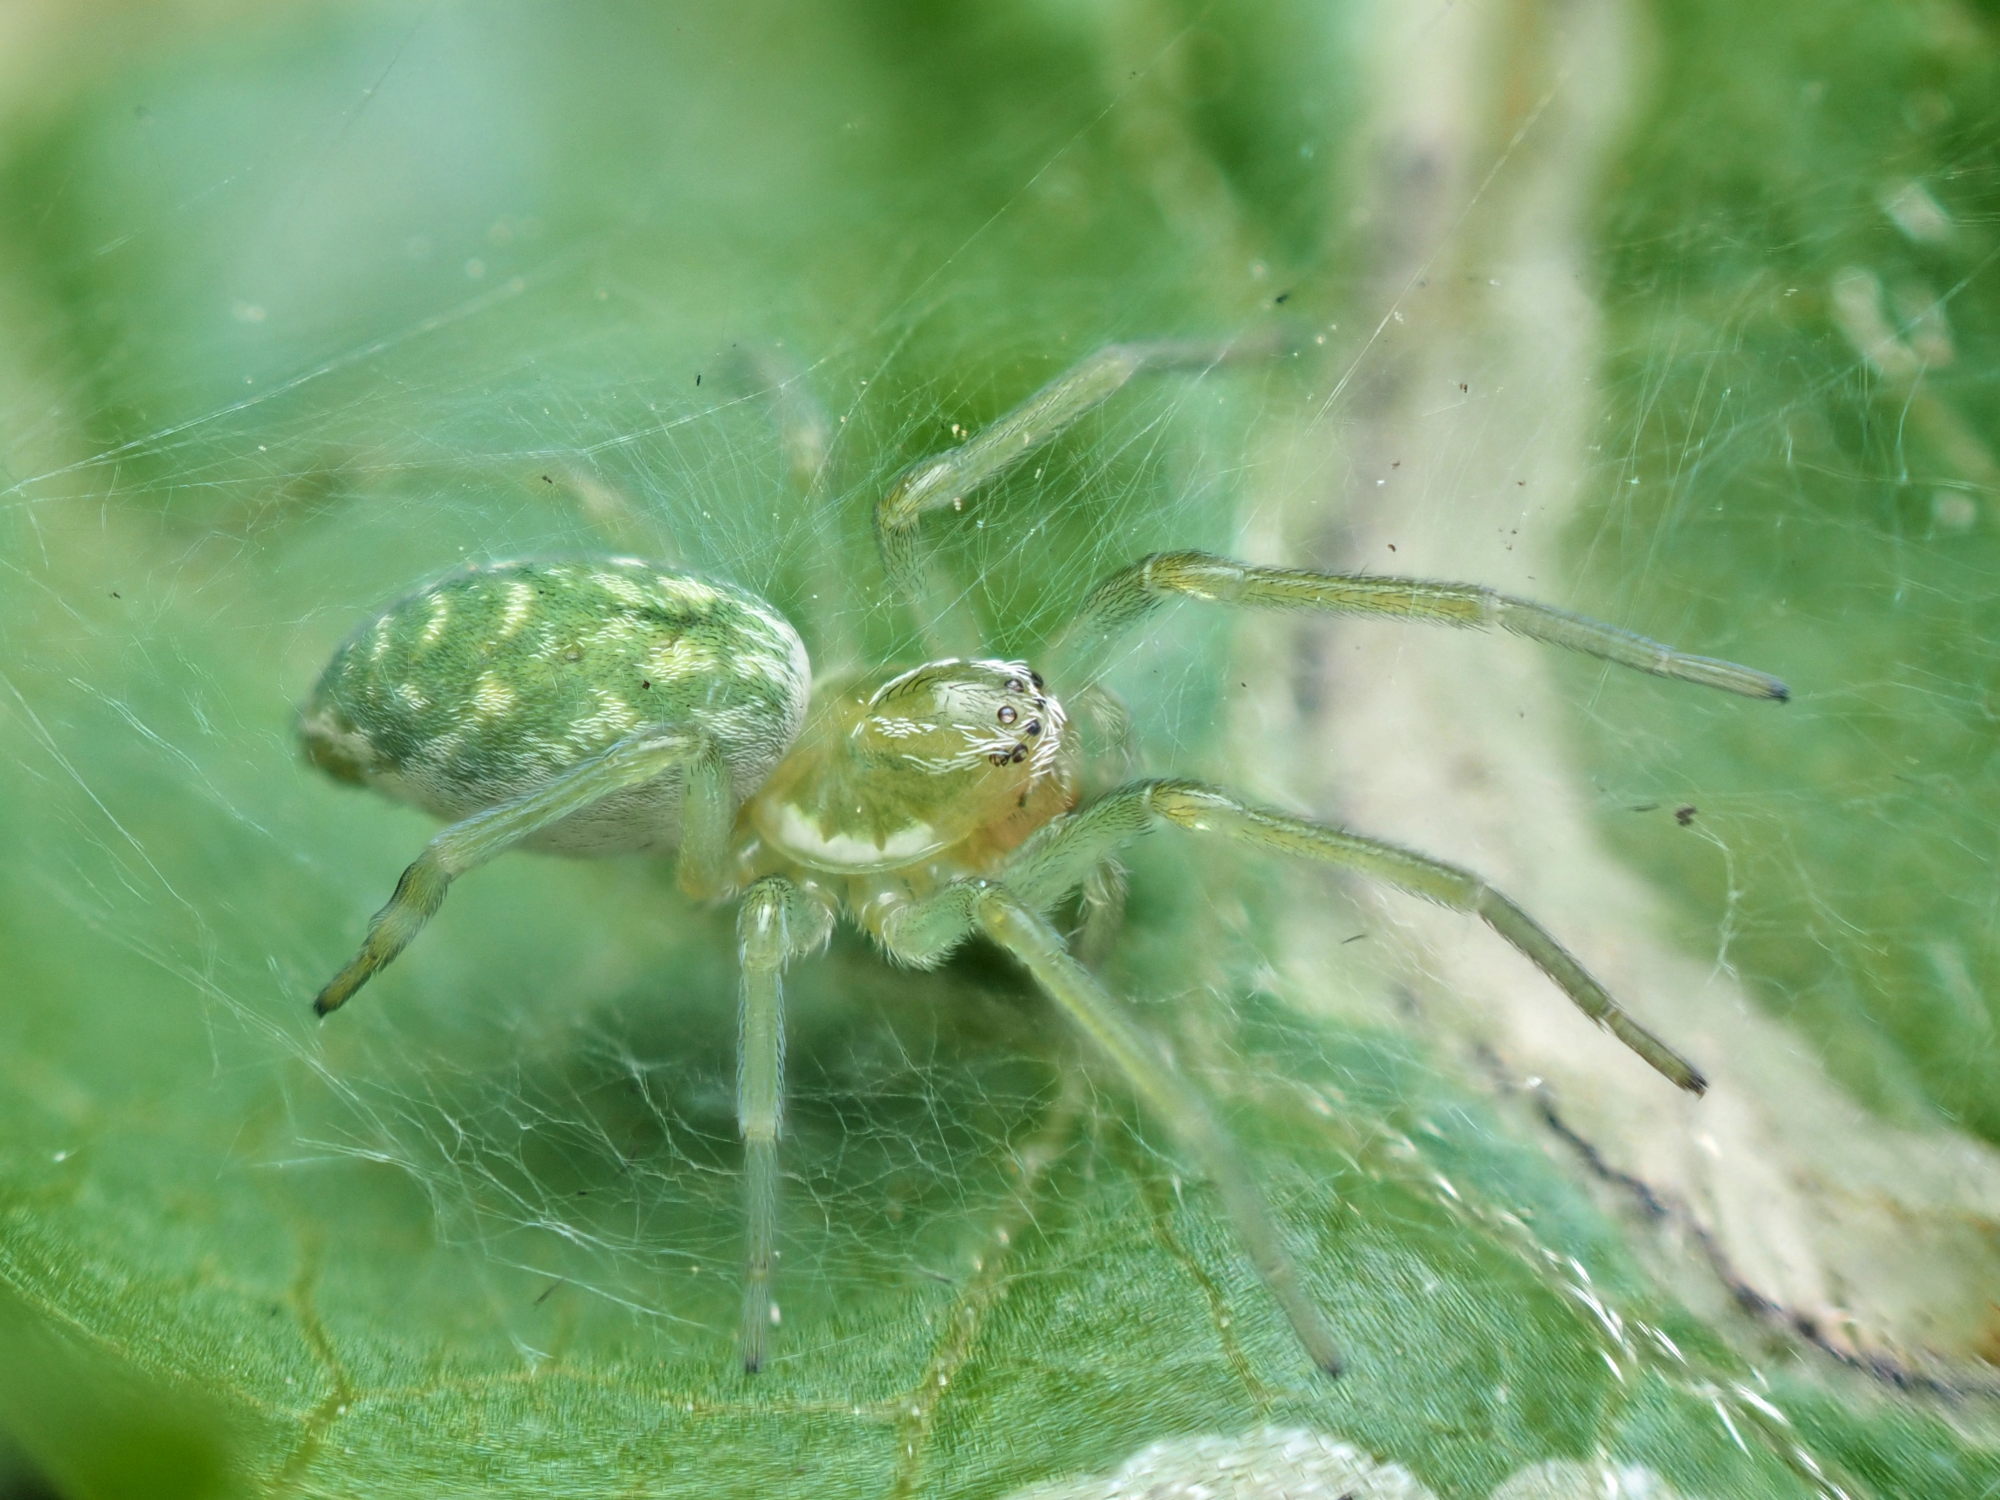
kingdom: Animalia
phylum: Arthropoda
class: Arachnida
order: Araneae
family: Dictynidae
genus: Nigma
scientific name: Nigma walckenaeri
